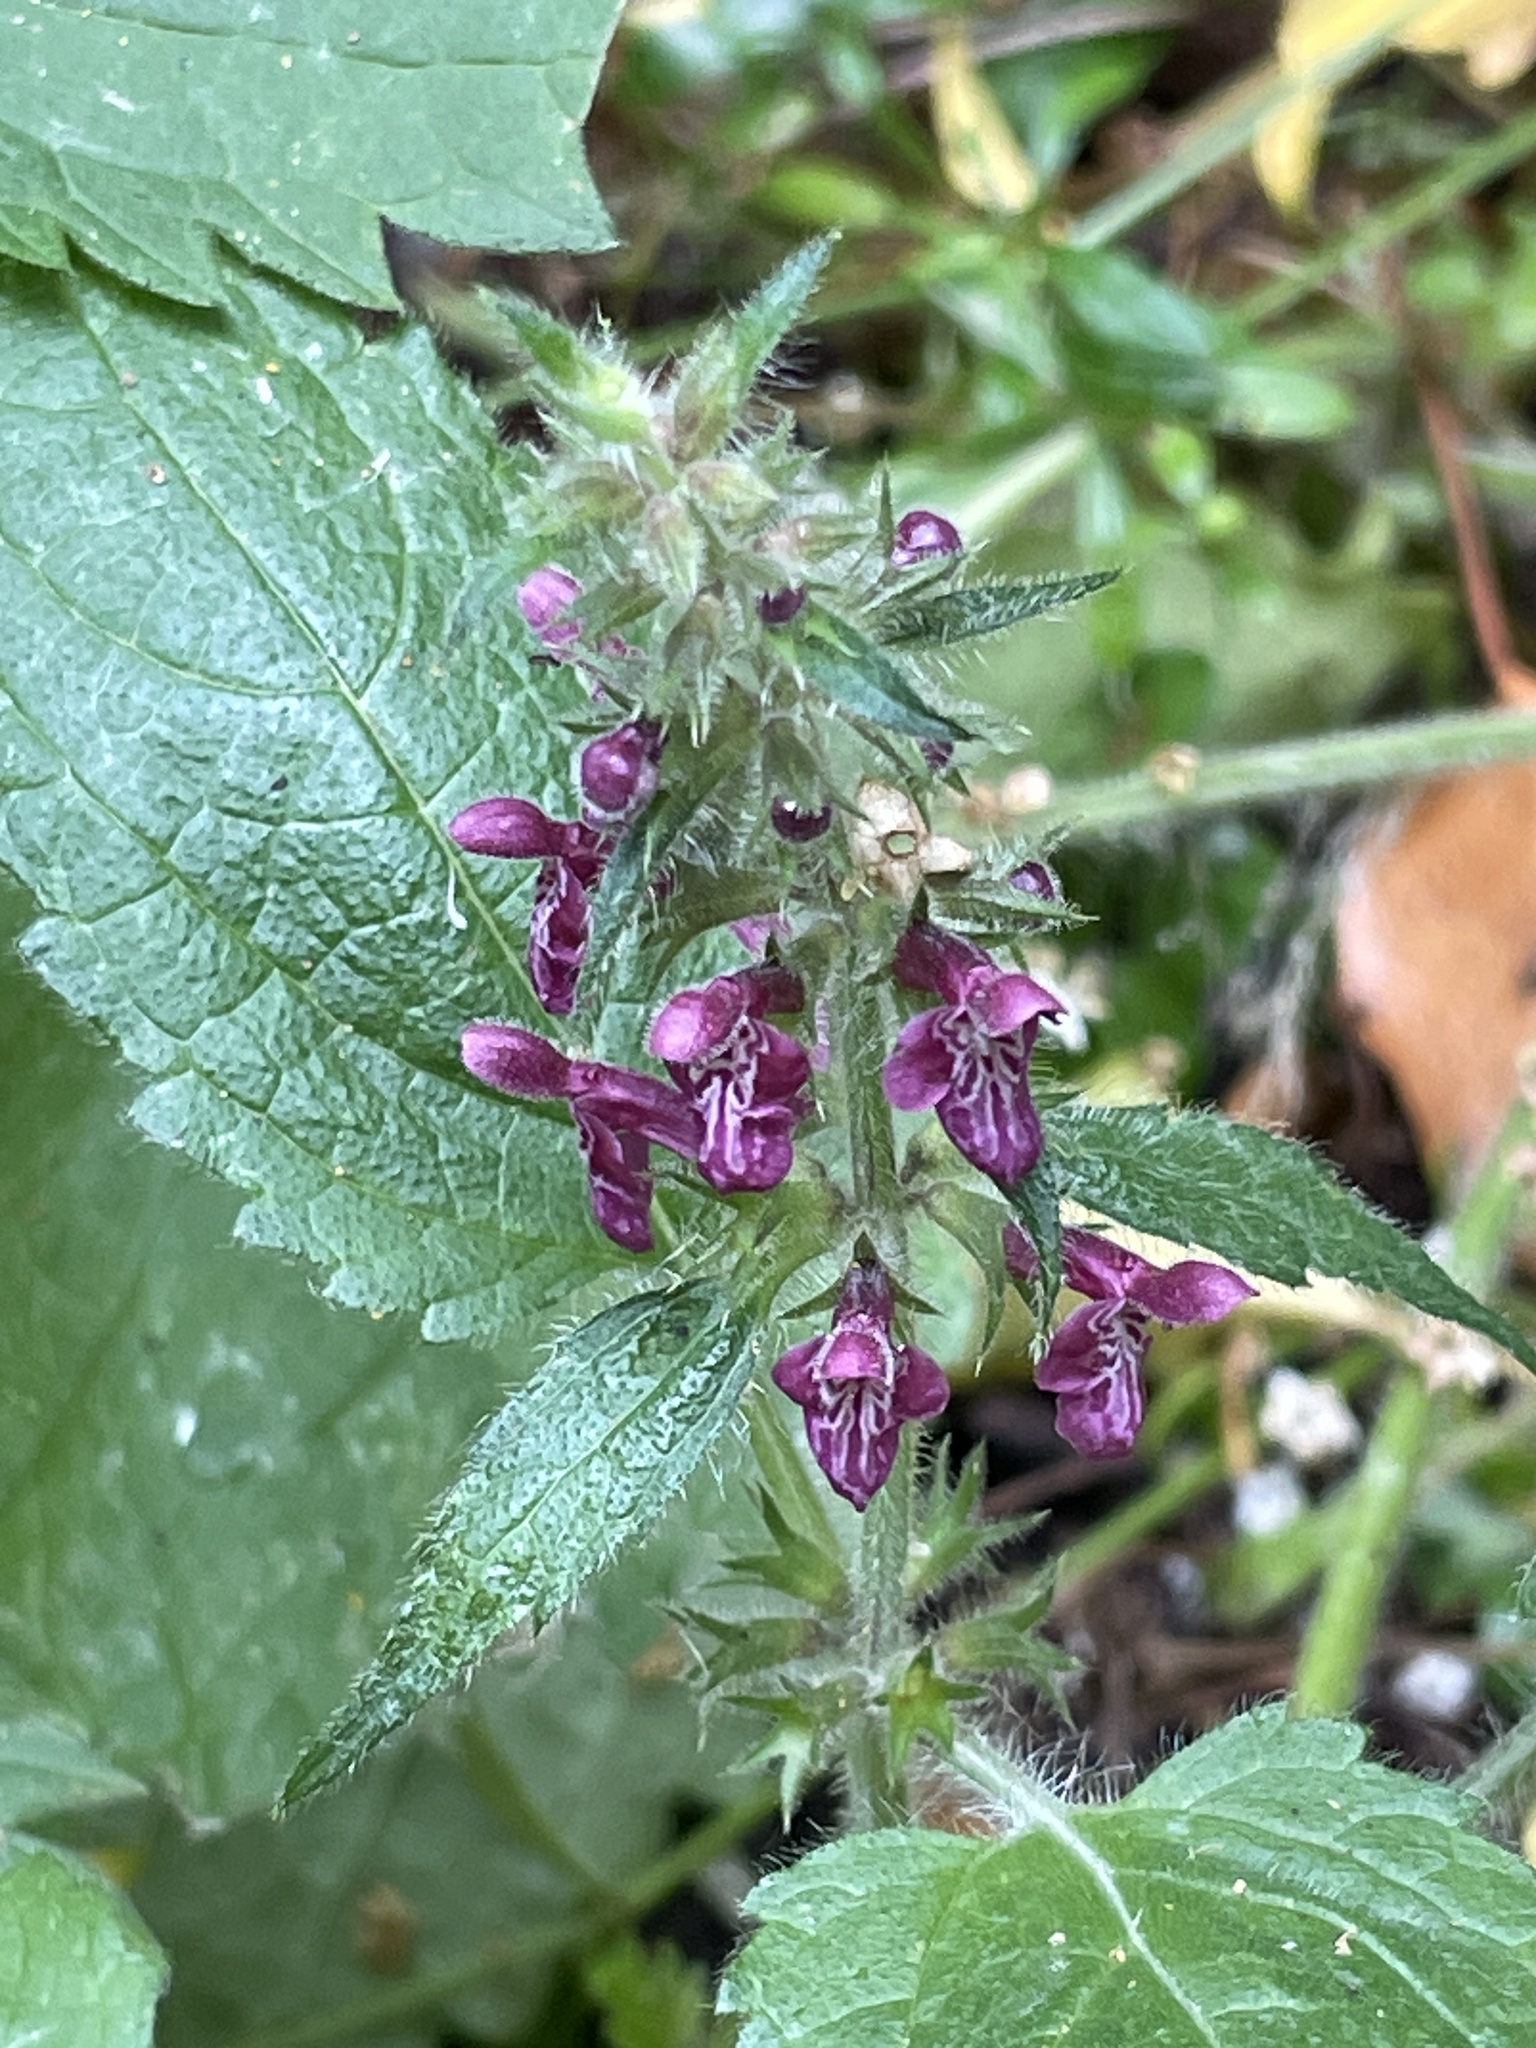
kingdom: Plantae
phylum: Tracheophyta
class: Magnoliopsida
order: Lamiales
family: Lamiaceae
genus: Stachys
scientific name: Stachys sylvatica
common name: Hedge woundwort
